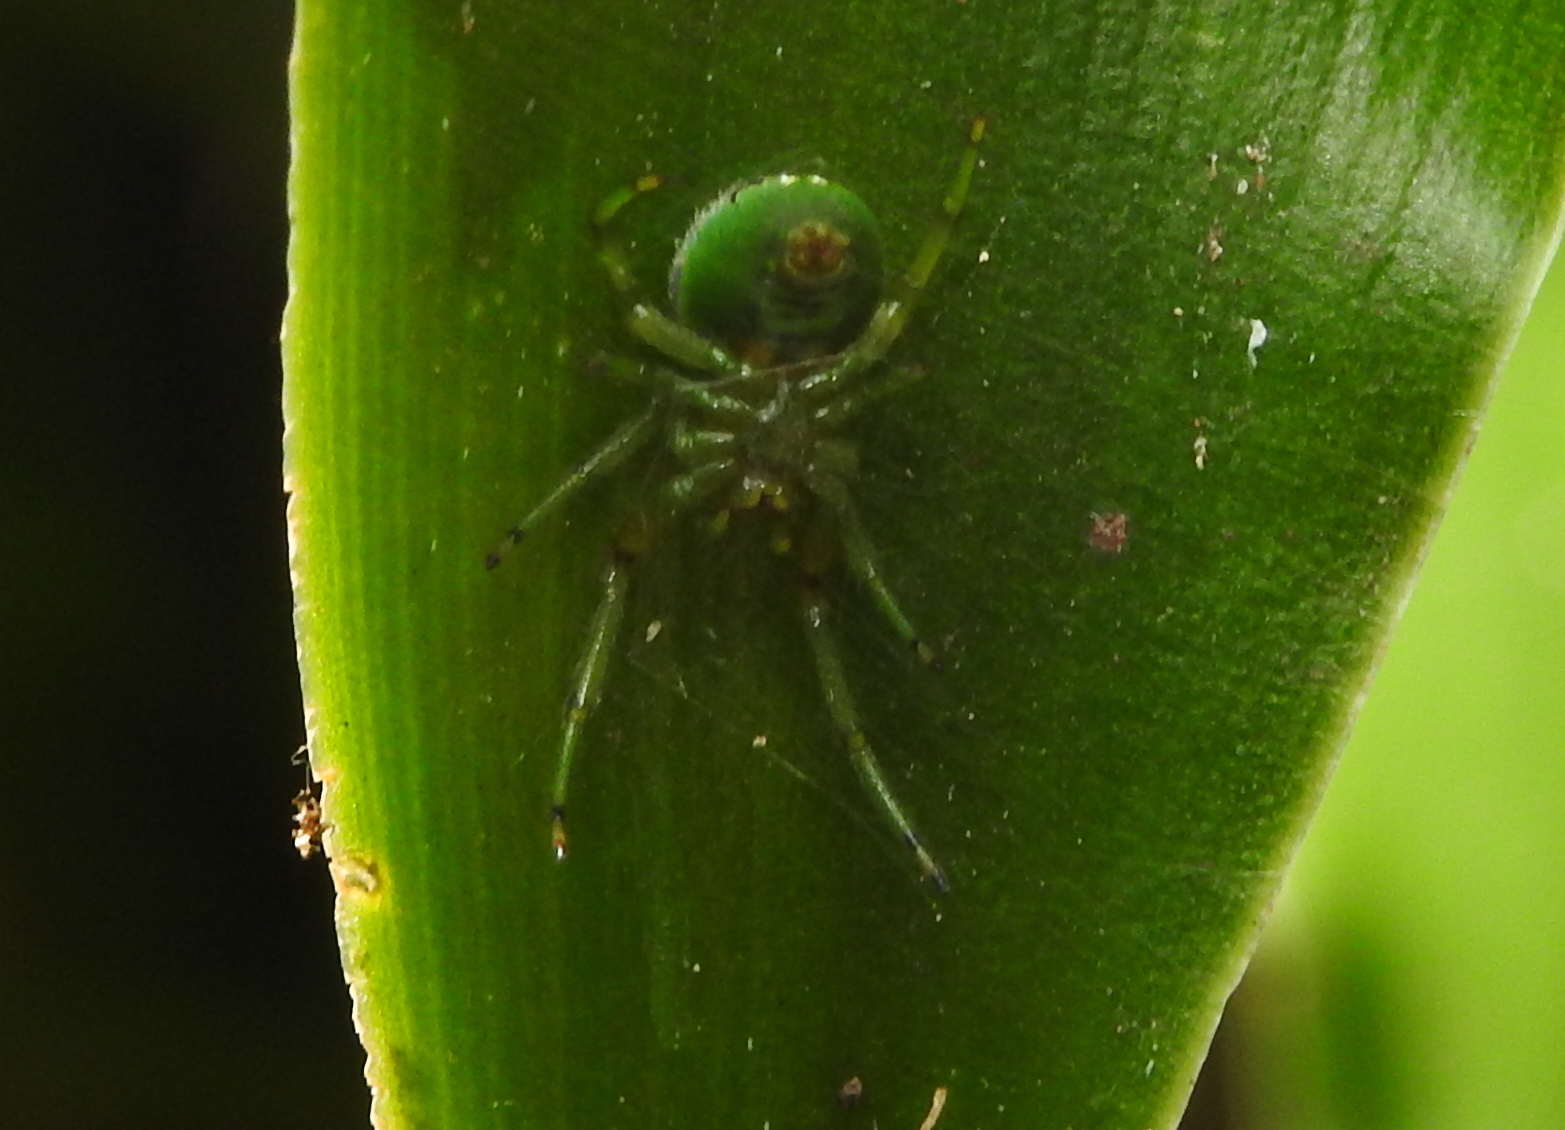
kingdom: Animalia
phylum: Arthropoda
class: Arachnida
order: Araneae
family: Araneidae
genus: Bijoaraneus
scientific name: Bijoaraneus mitificus
